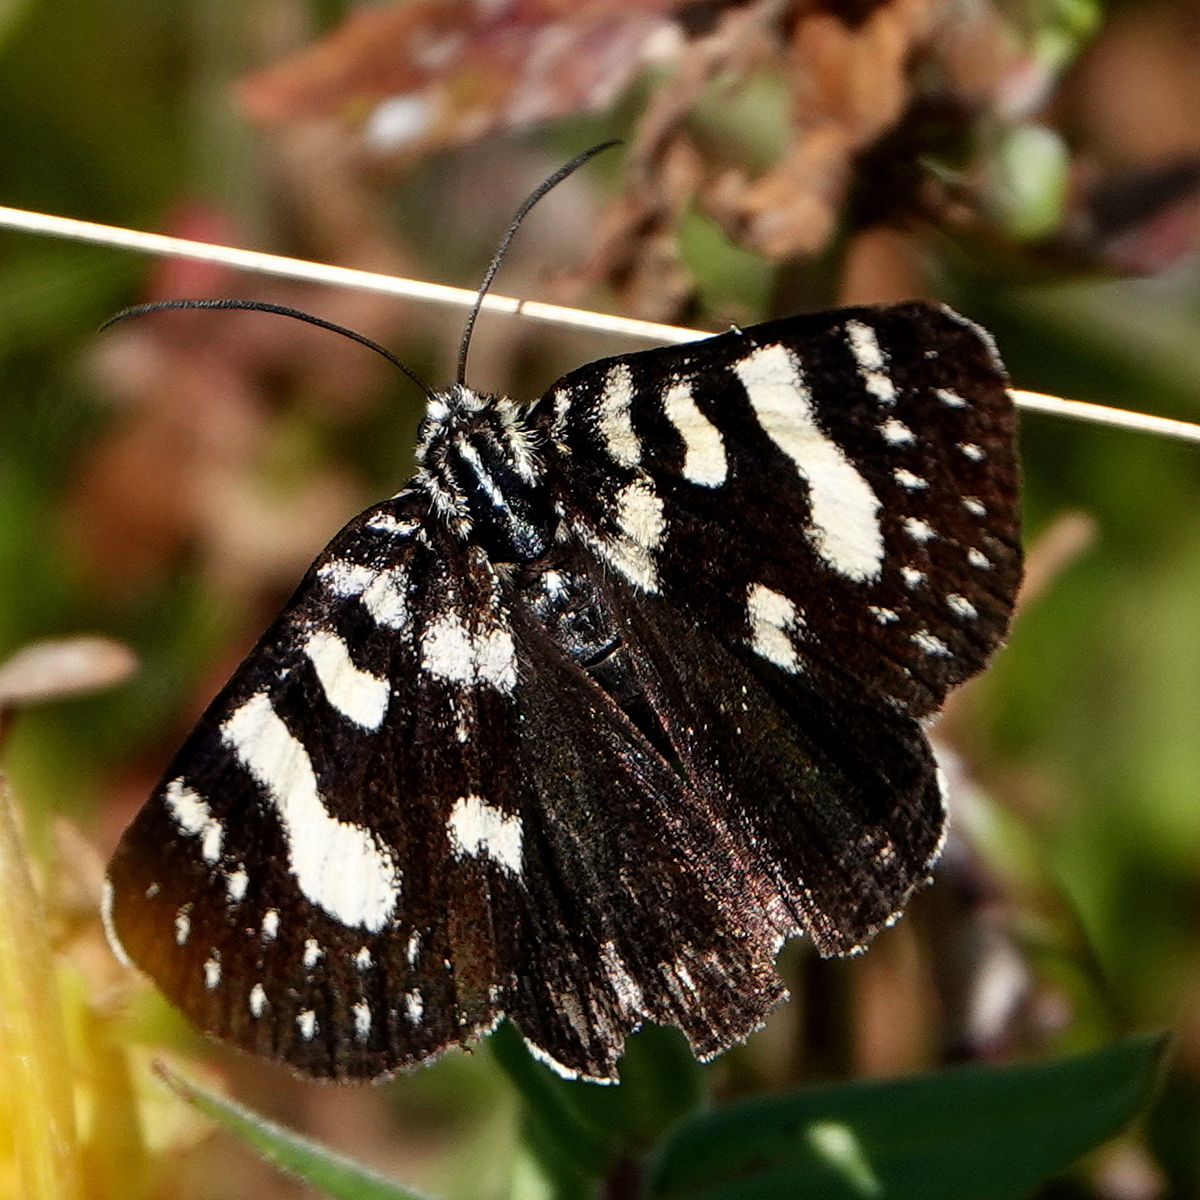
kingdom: Animalia
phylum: Arthropoda
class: Insecta
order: Lepidoptera
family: Noctuidae
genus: Phalaenoides
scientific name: Phalaenoides tristifica
